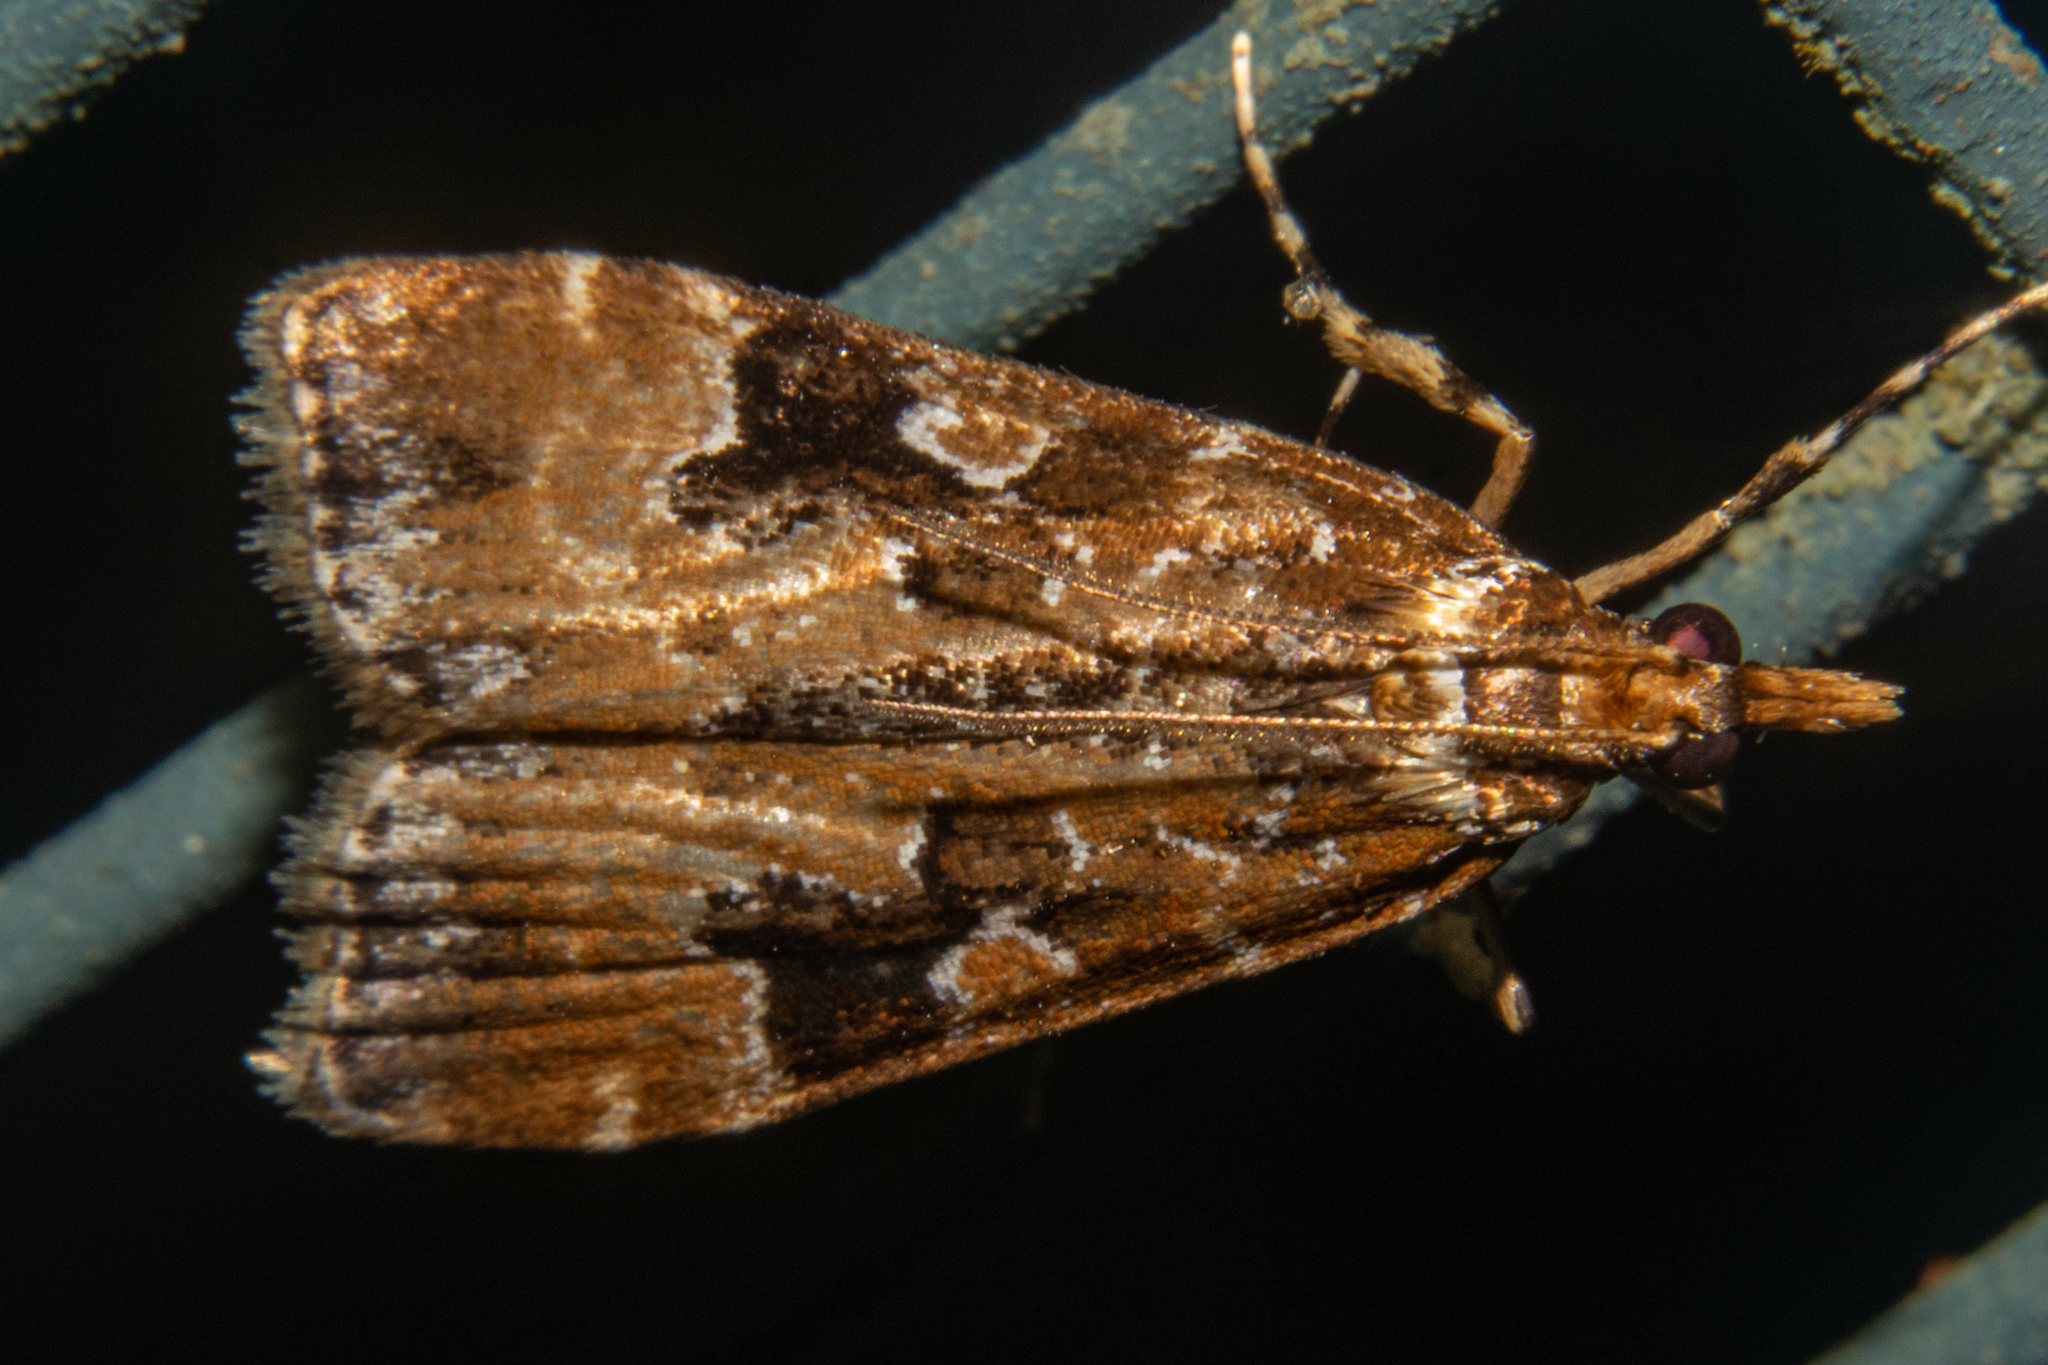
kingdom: Animalia
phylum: Arthropoda
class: Insecta
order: Lepidoptera
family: Crambidae
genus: Scoparia
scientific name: Scoparia ustimacula
